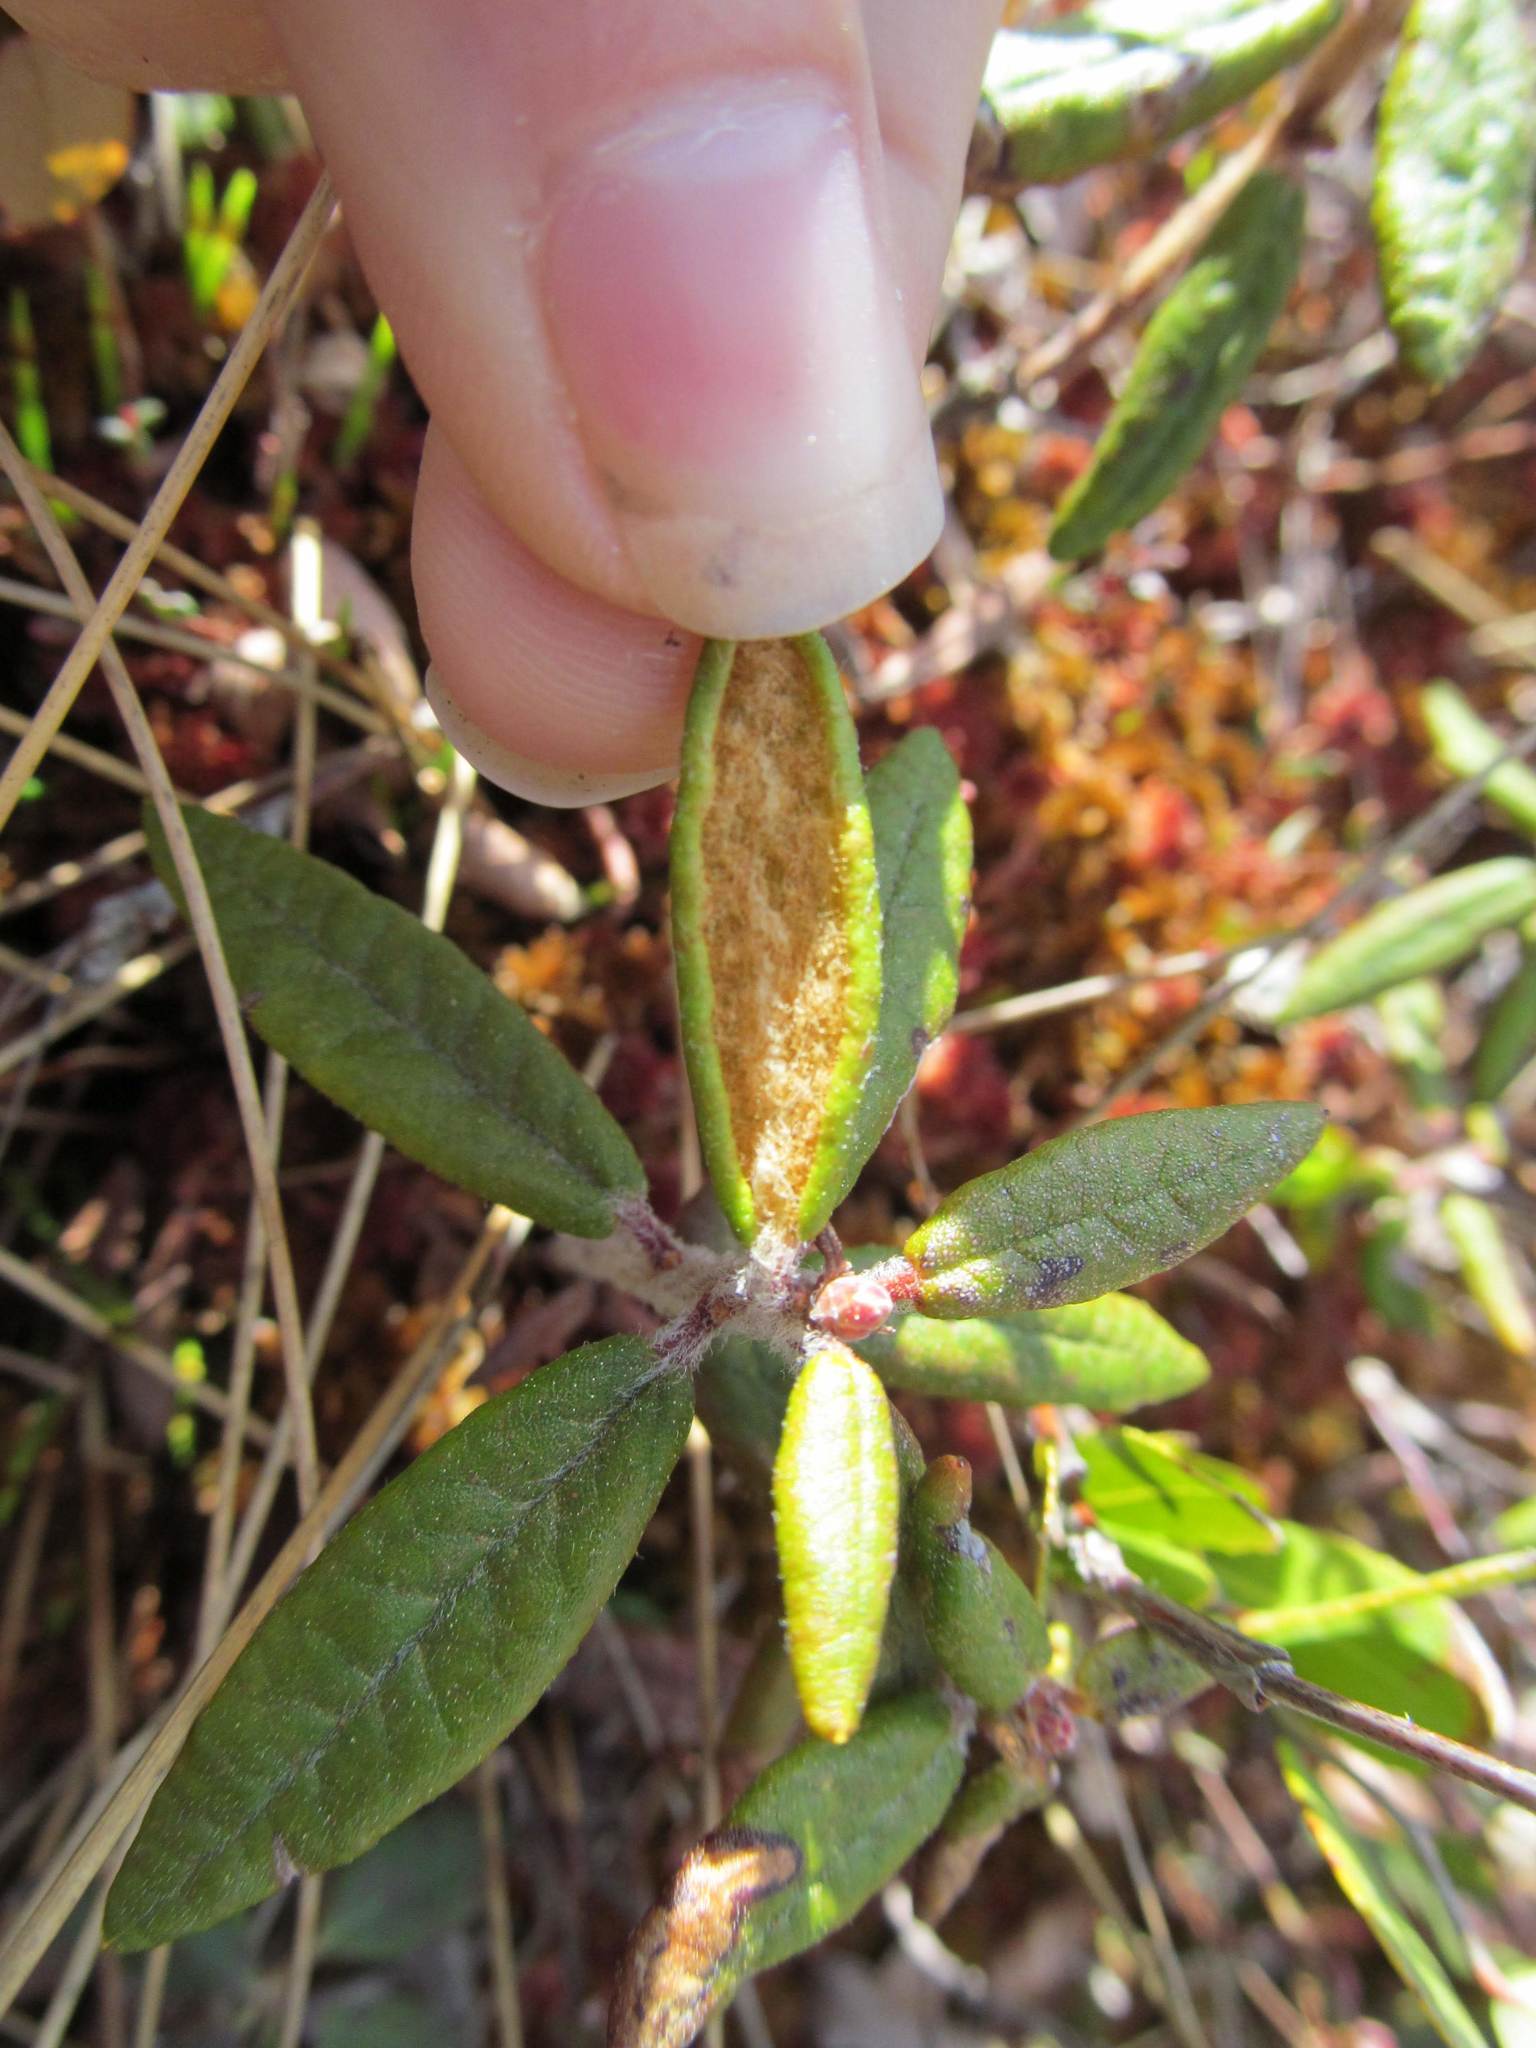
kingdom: Plantae
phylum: Tracheophyta
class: Magnoliopsida
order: Ericales
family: Ericaceae
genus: Rhododendron
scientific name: Rhododendron groenlandicum
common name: Bog labrador tea
